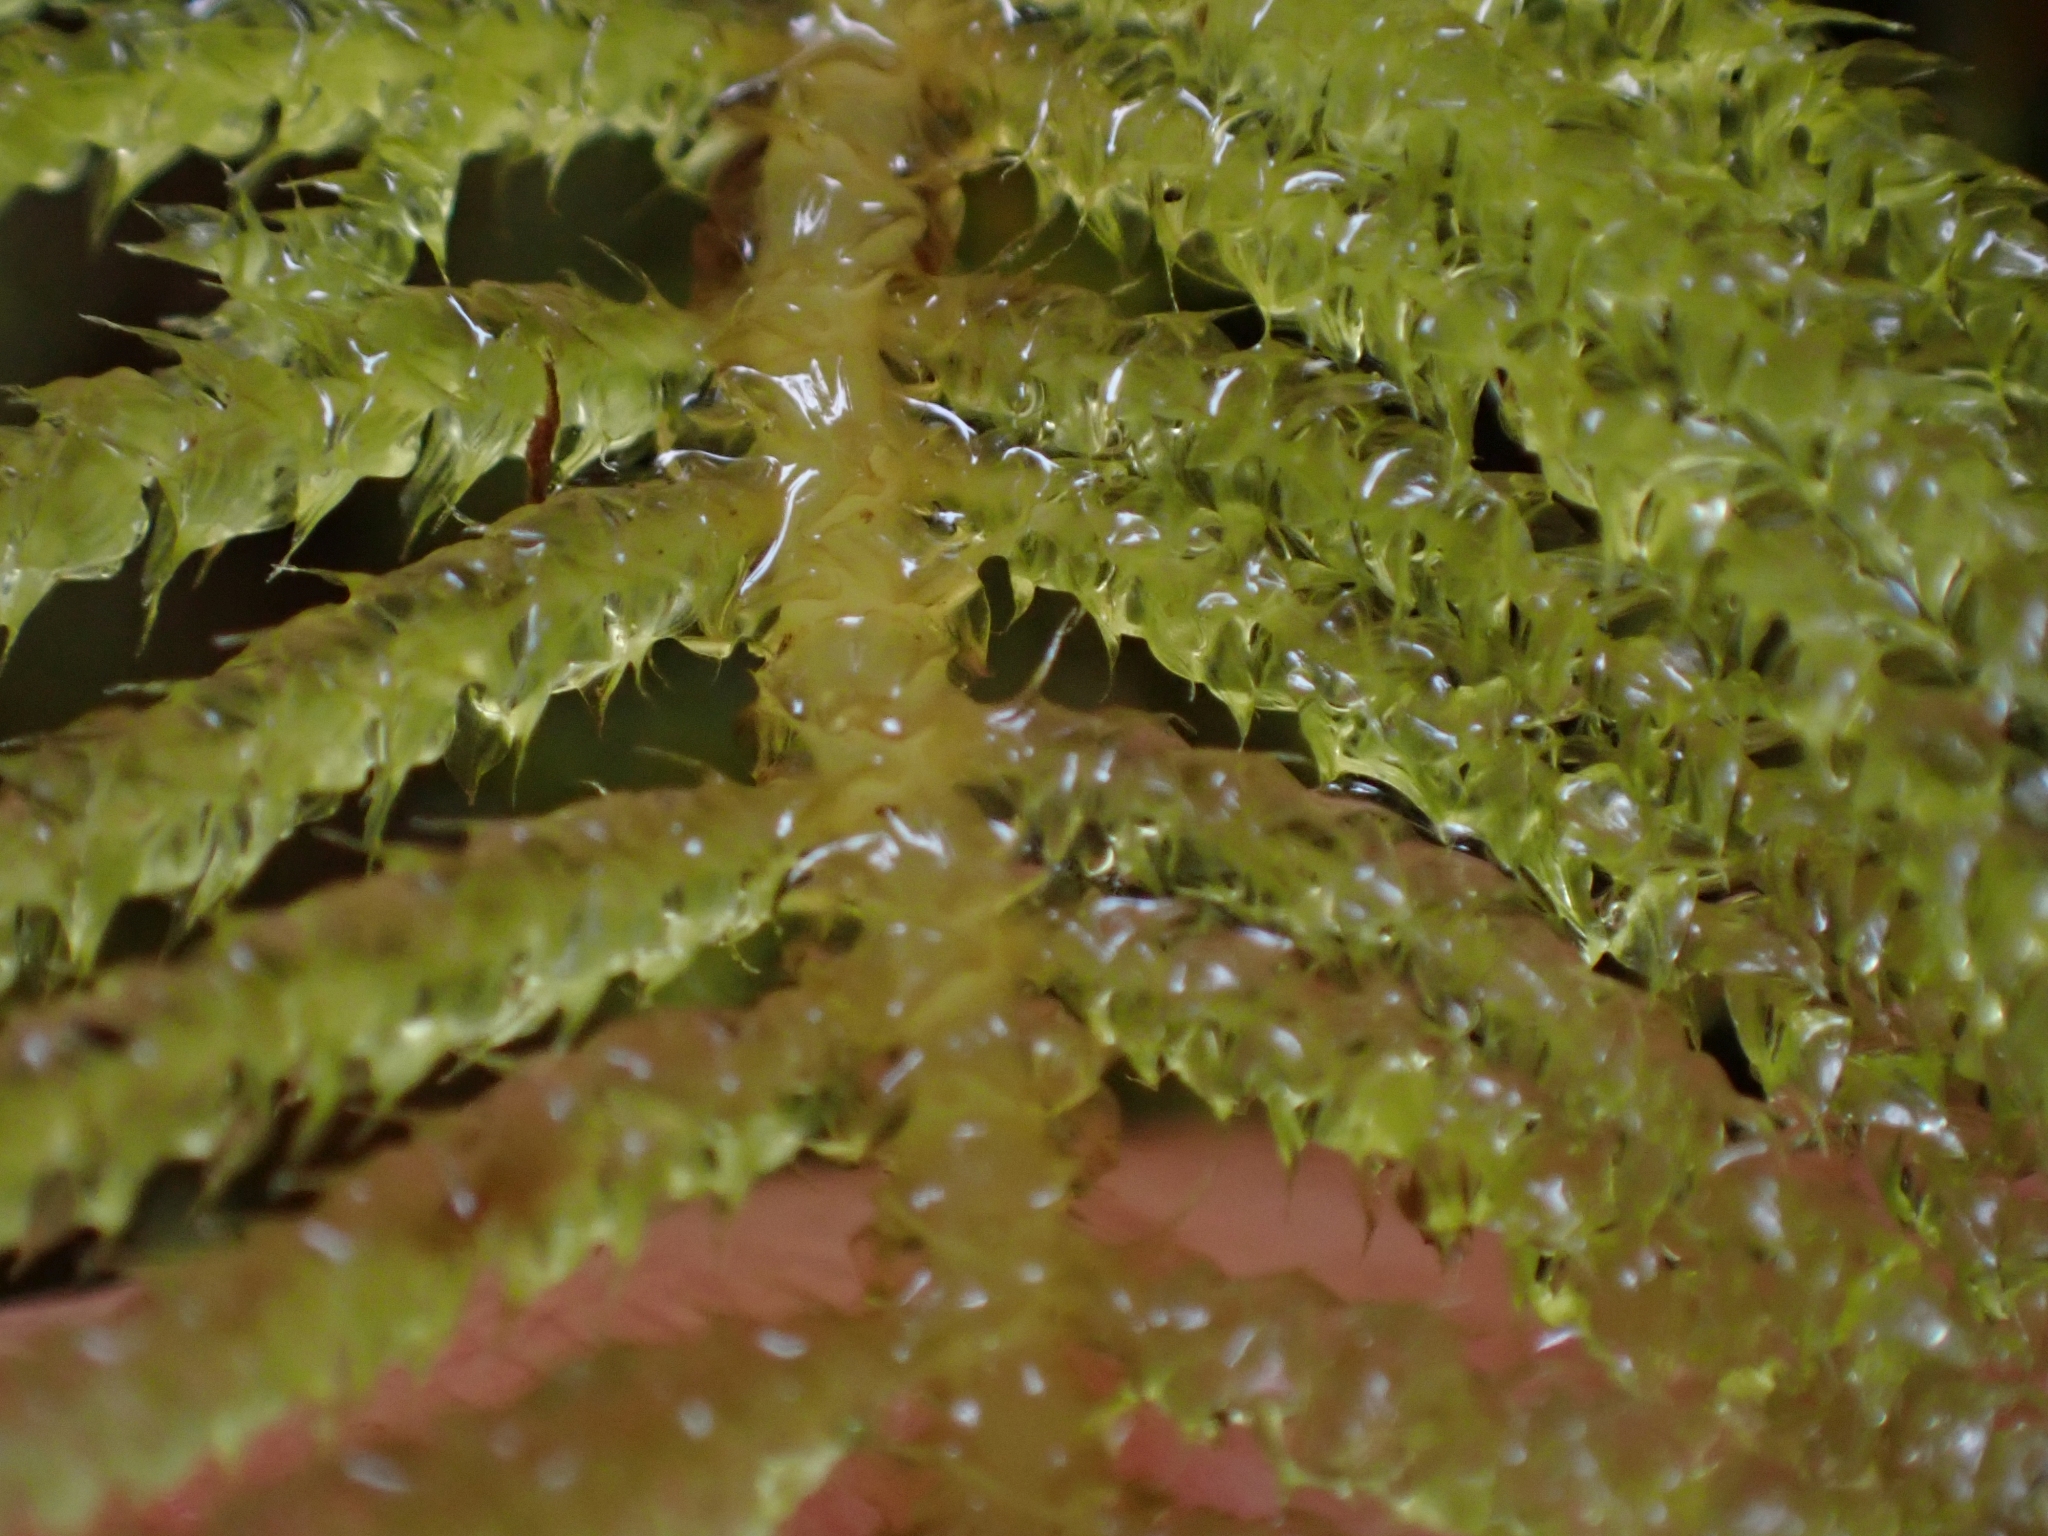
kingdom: Plantae
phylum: Bryophyta
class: Bryopsida
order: Hypnales
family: Brachytheciaceae
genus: Kindbergia
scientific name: Kindbergia oregana
